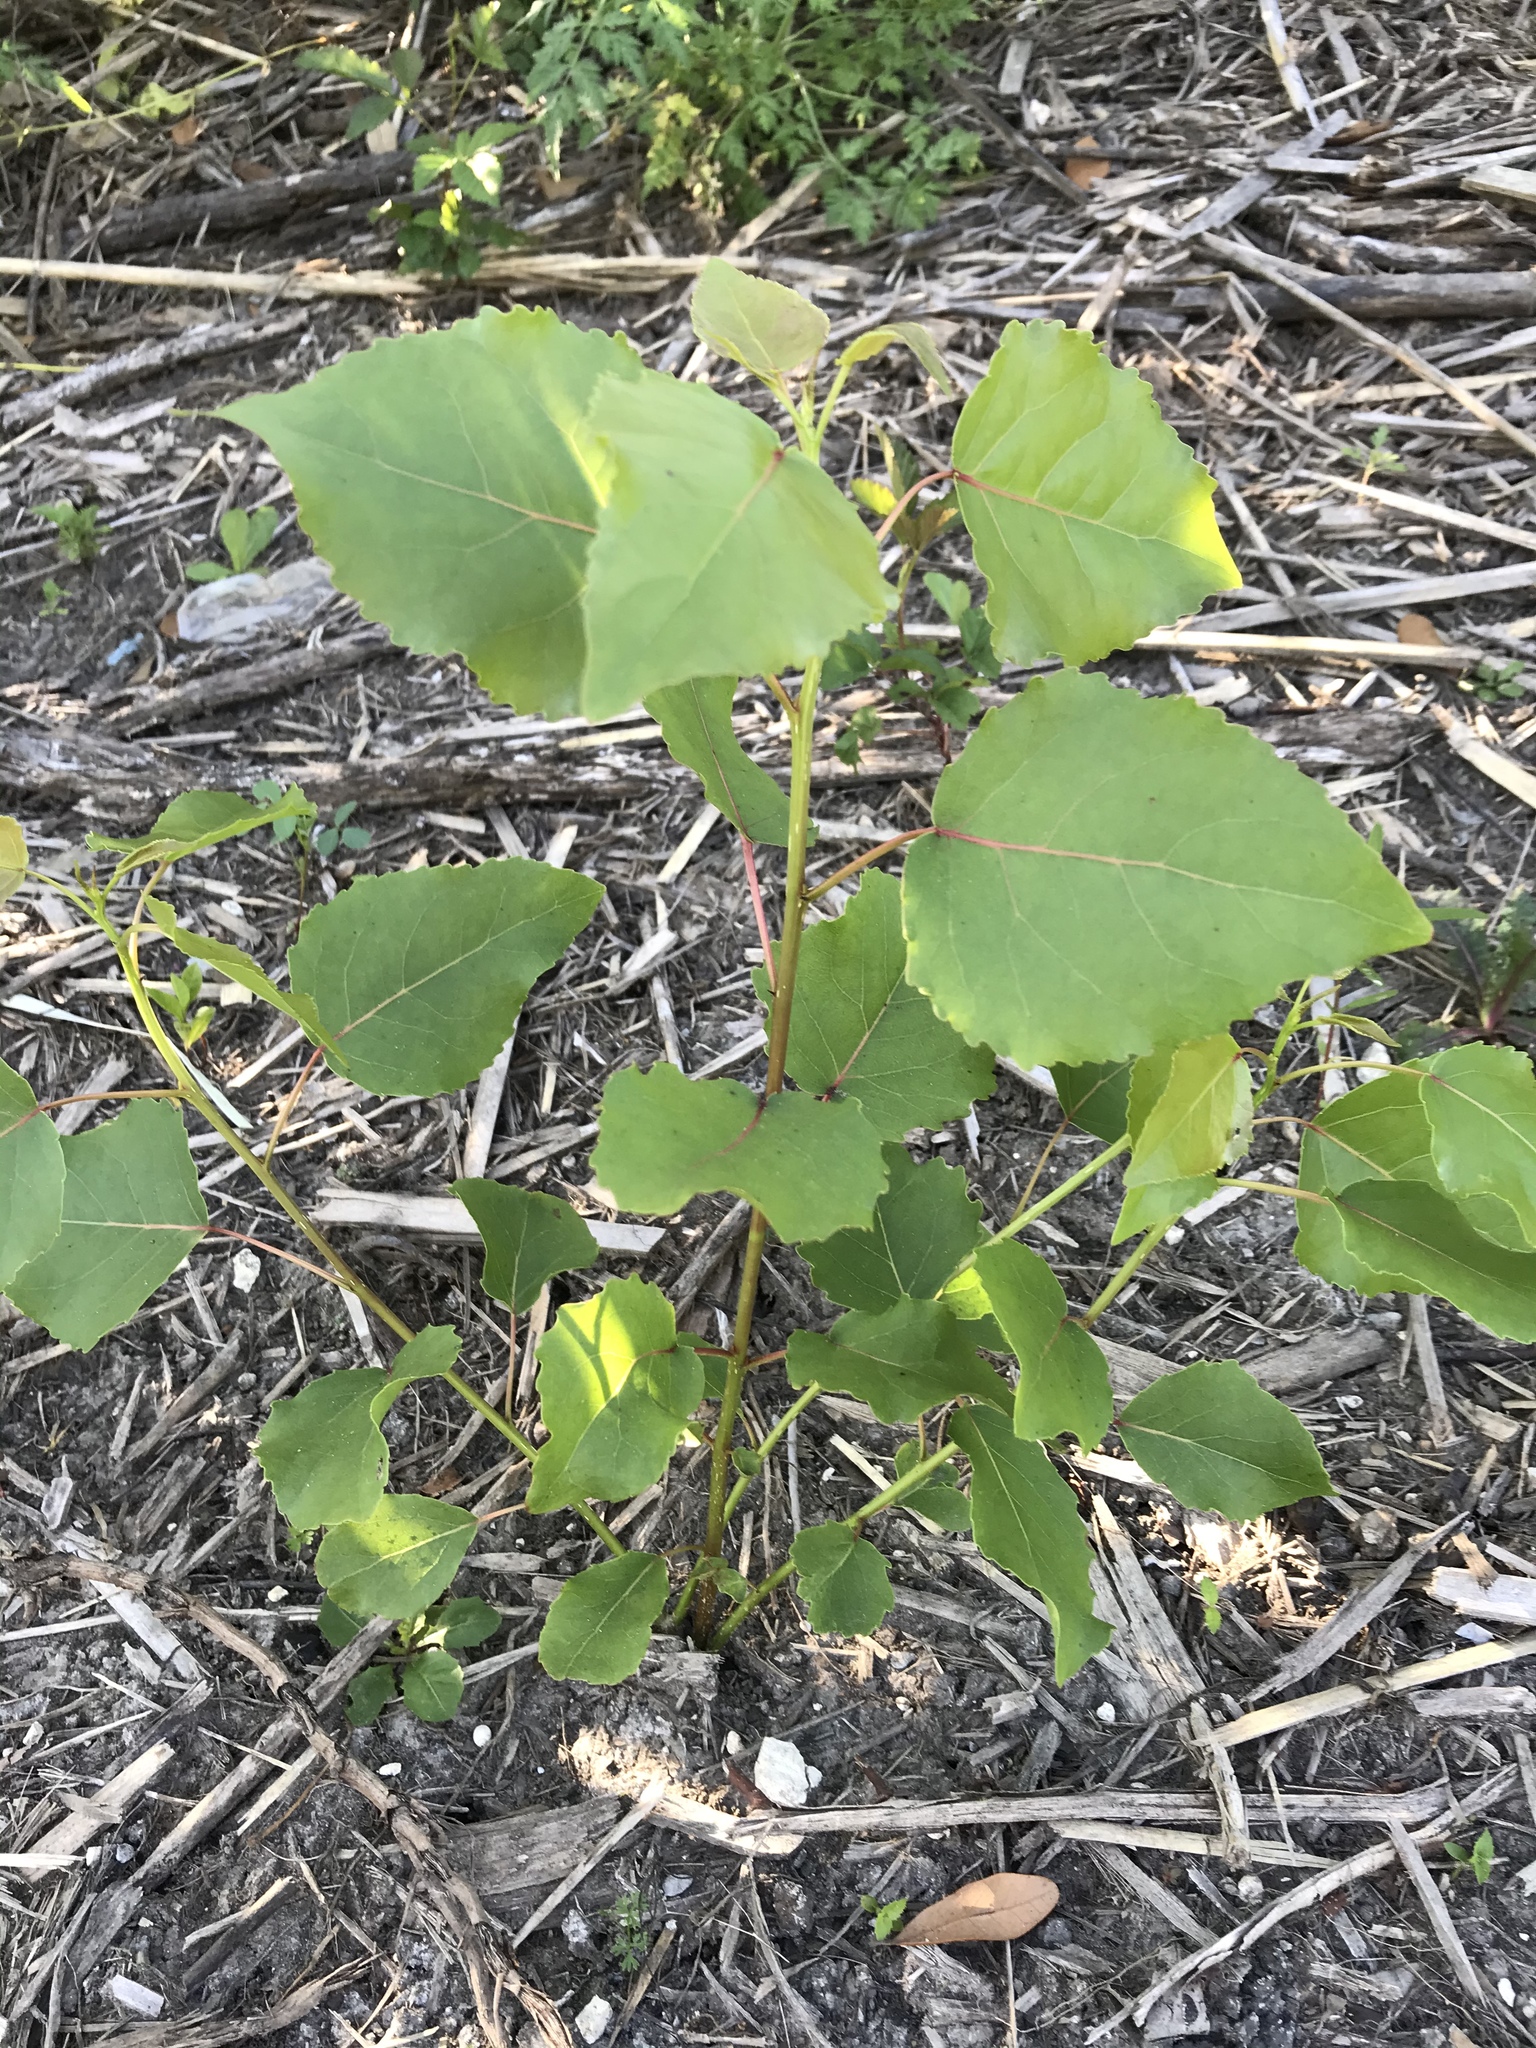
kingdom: Plantae
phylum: Tracheophyta
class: Magnoliopsida
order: Malpighiales
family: Salicaceae
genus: Populus
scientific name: Populus deltoides
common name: Eastern cottonwood
